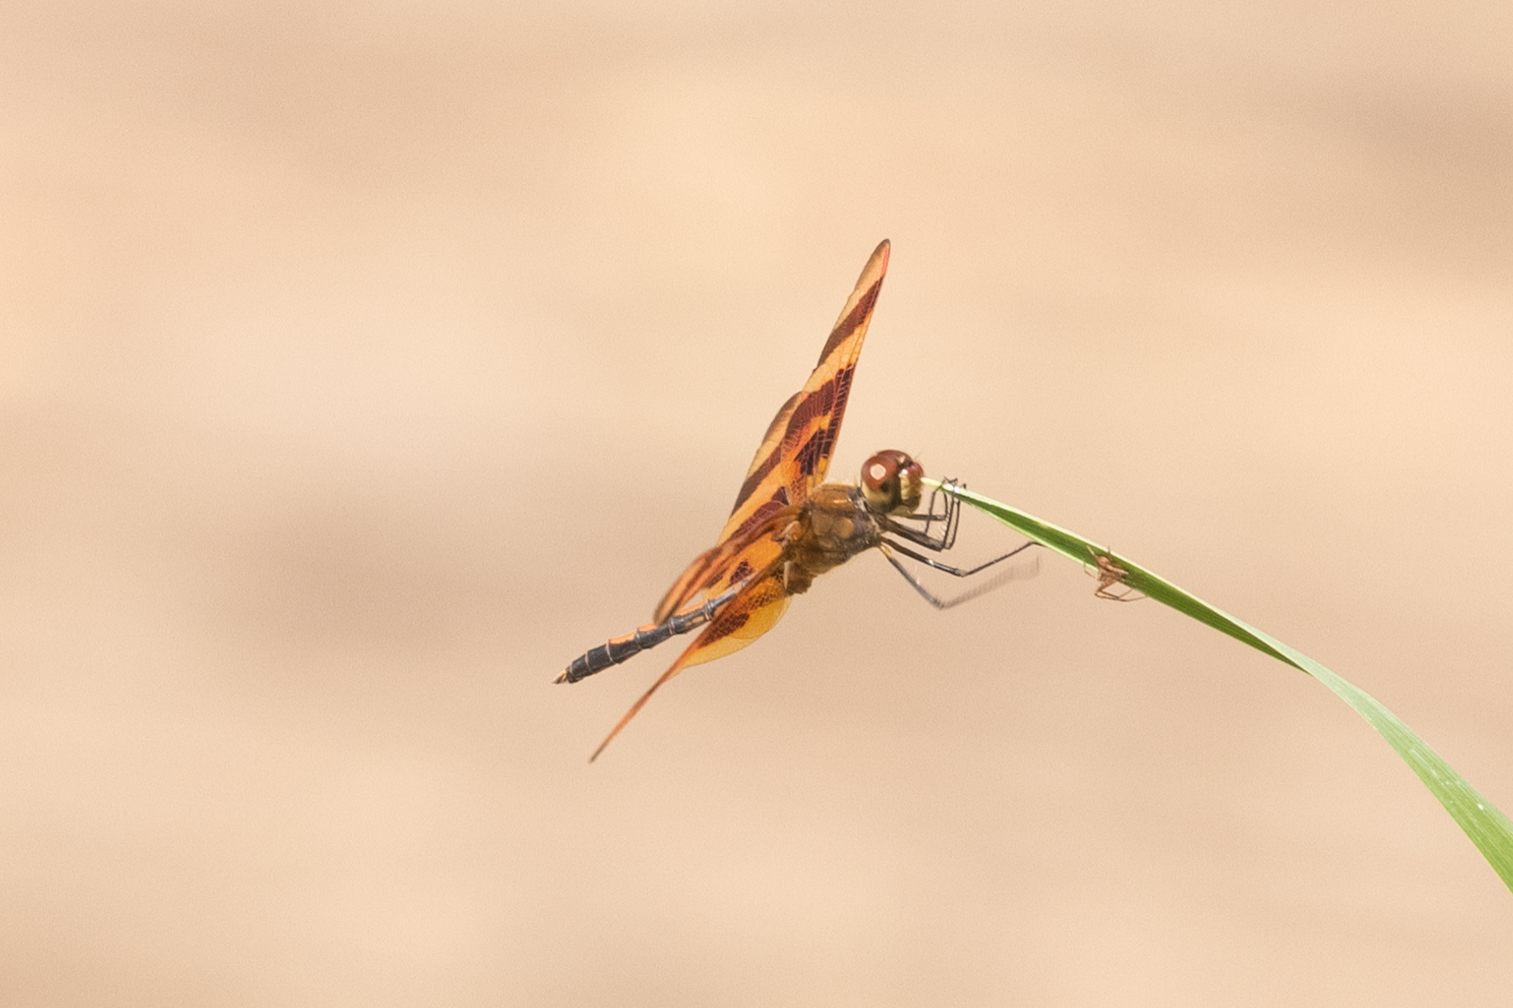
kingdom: Animalia
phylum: Arthropoda
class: Insecta
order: Odonata
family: Libellulidae
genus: Celithemis
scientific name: Celithemis eponina
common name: Halloween pennant
